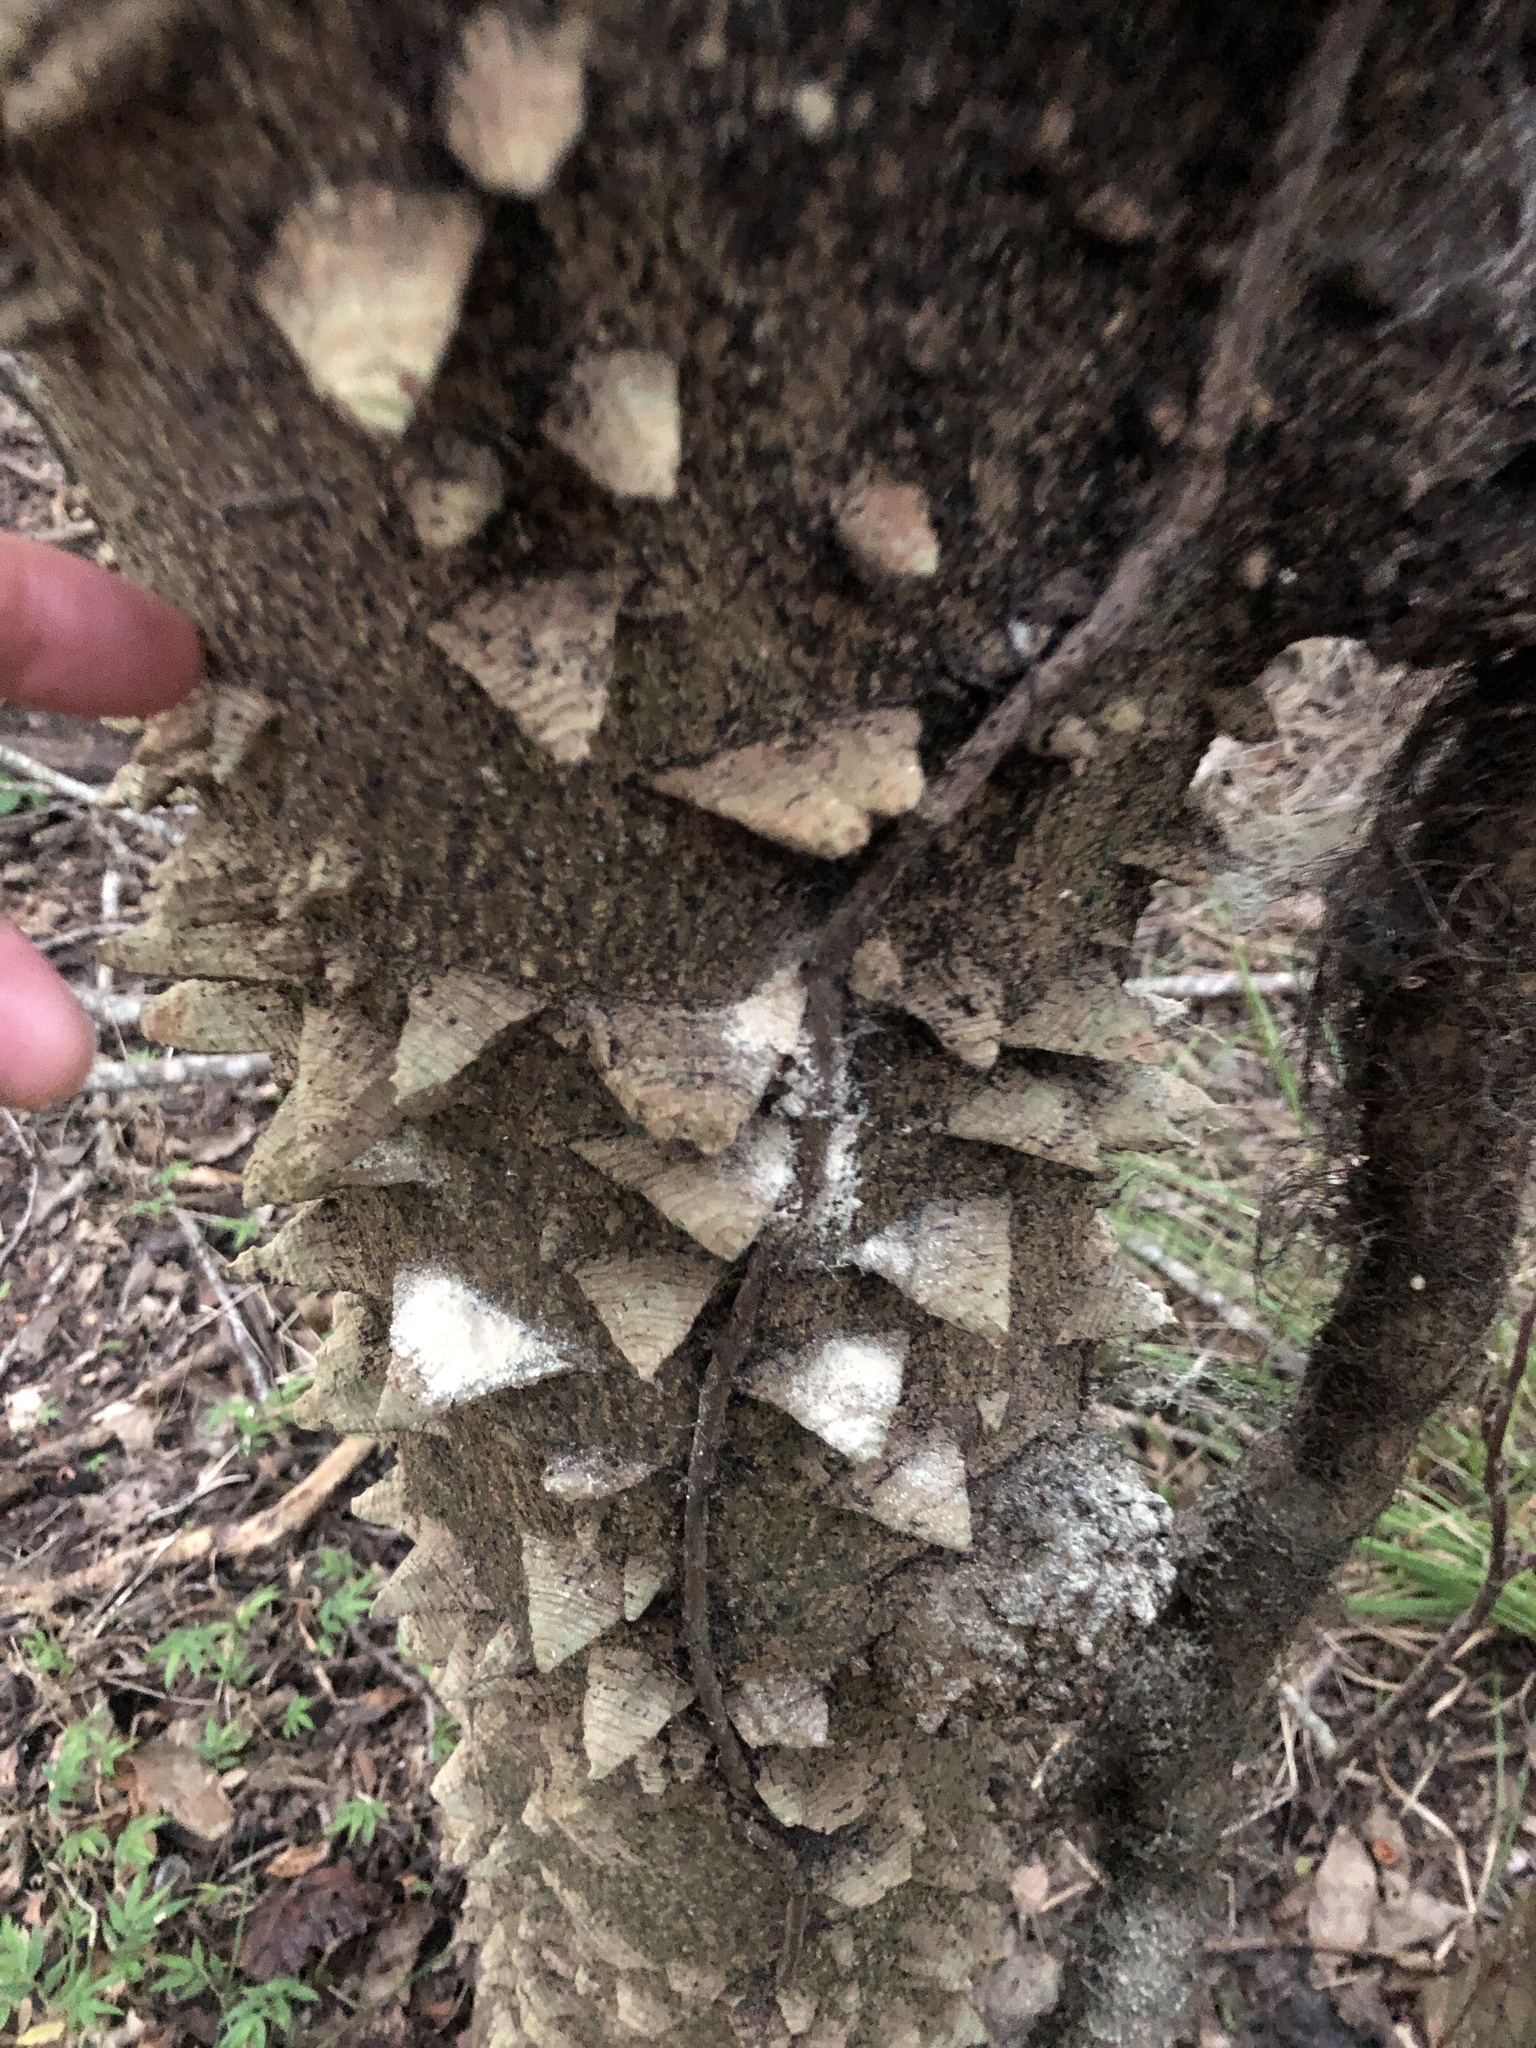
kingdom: Plantae
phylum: Tracheophyta
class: Magnoliopsida
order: Sapindales
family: Rutaceae
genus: Zanthoxylum
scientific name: Zanthoxylum clava-herculis
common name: Hercules'-club
